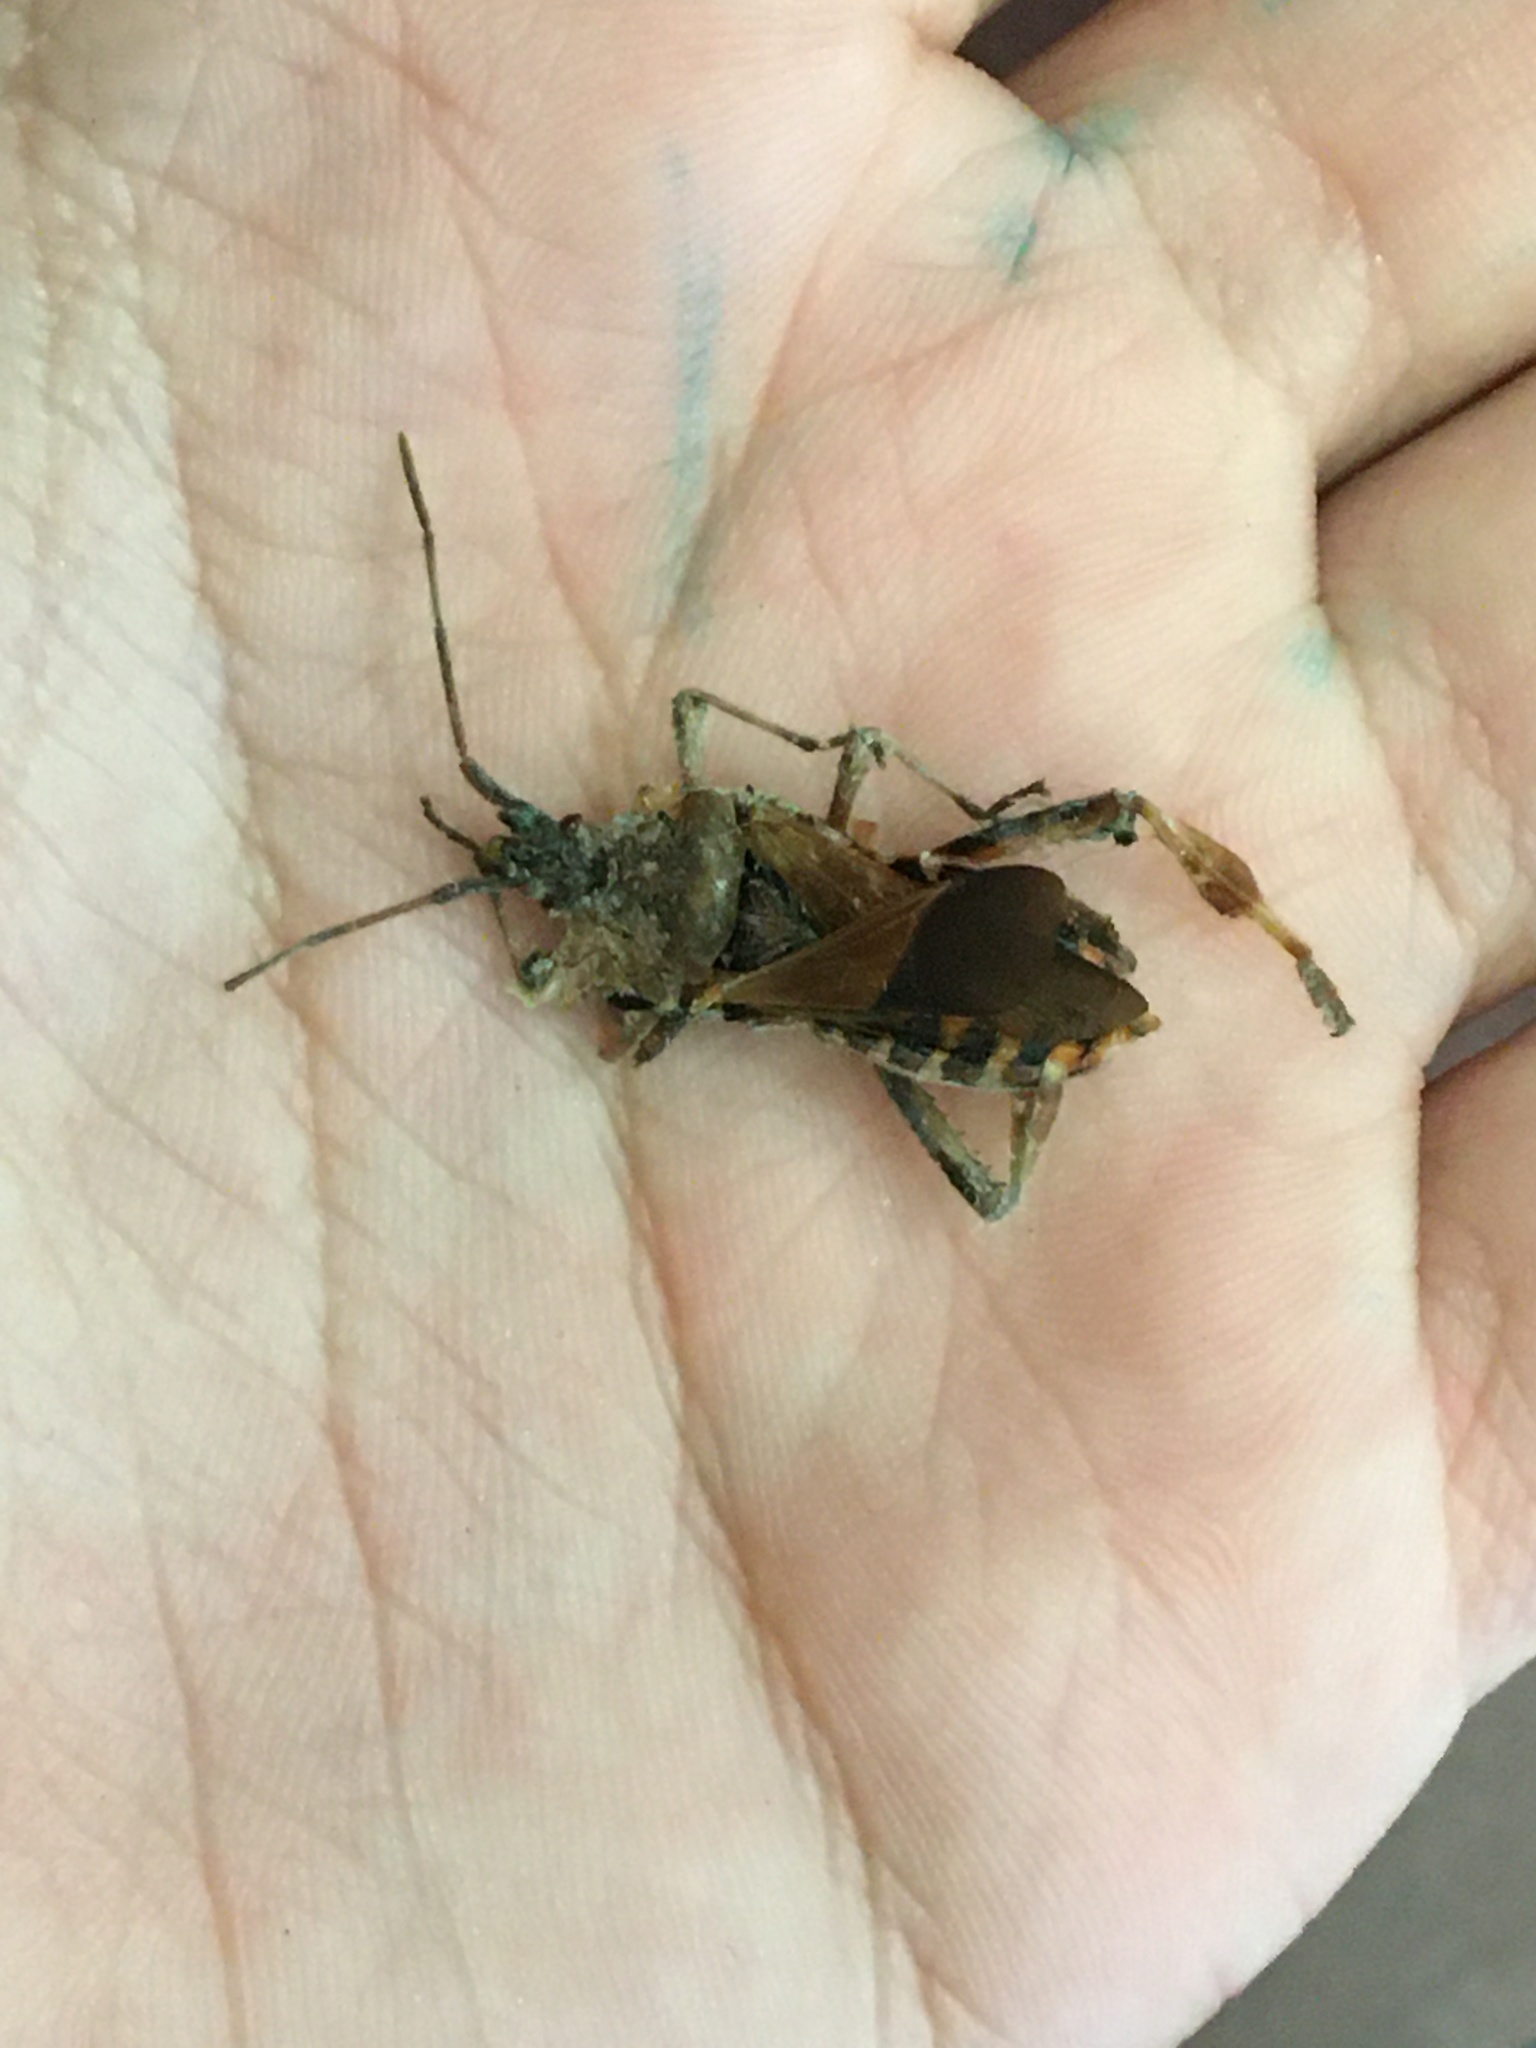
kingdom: Animalia
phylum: Arthropoda
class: Insecta
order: Hemiptera
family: Coreidae
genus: Leptoglossus
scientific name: Leptoglossus occidentalis
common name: Western conifer-seed bug
